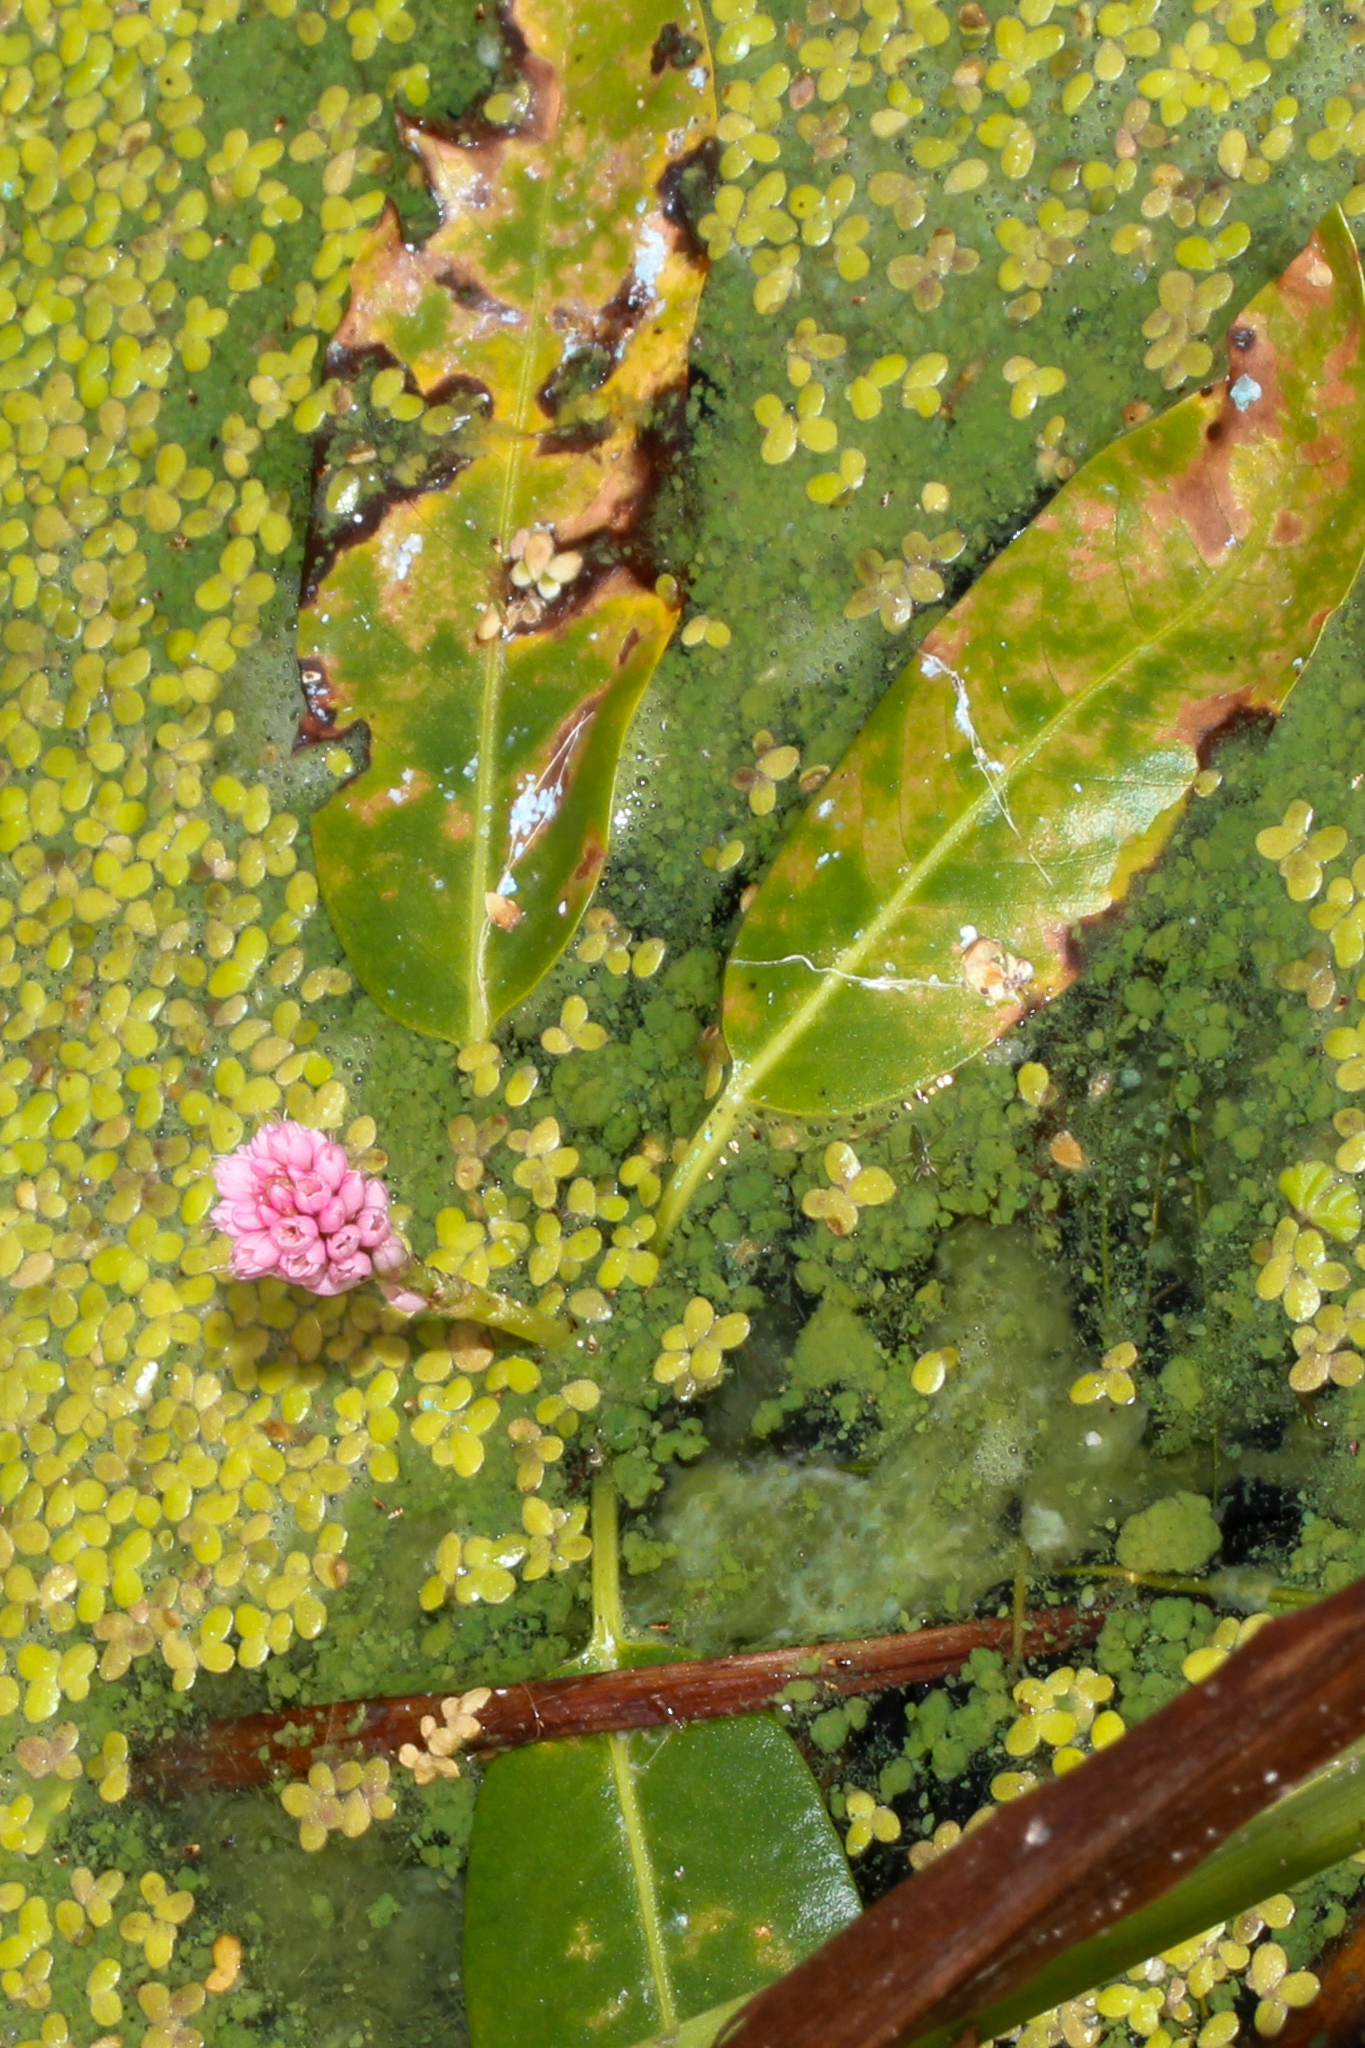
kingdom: Plantae
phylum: Tracheophyta
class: Magnoliopsida
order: Caryophyllales
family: Polygonaceae
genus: Persicaria
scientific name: Persicaria amphibia
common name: Amphibious bistort
